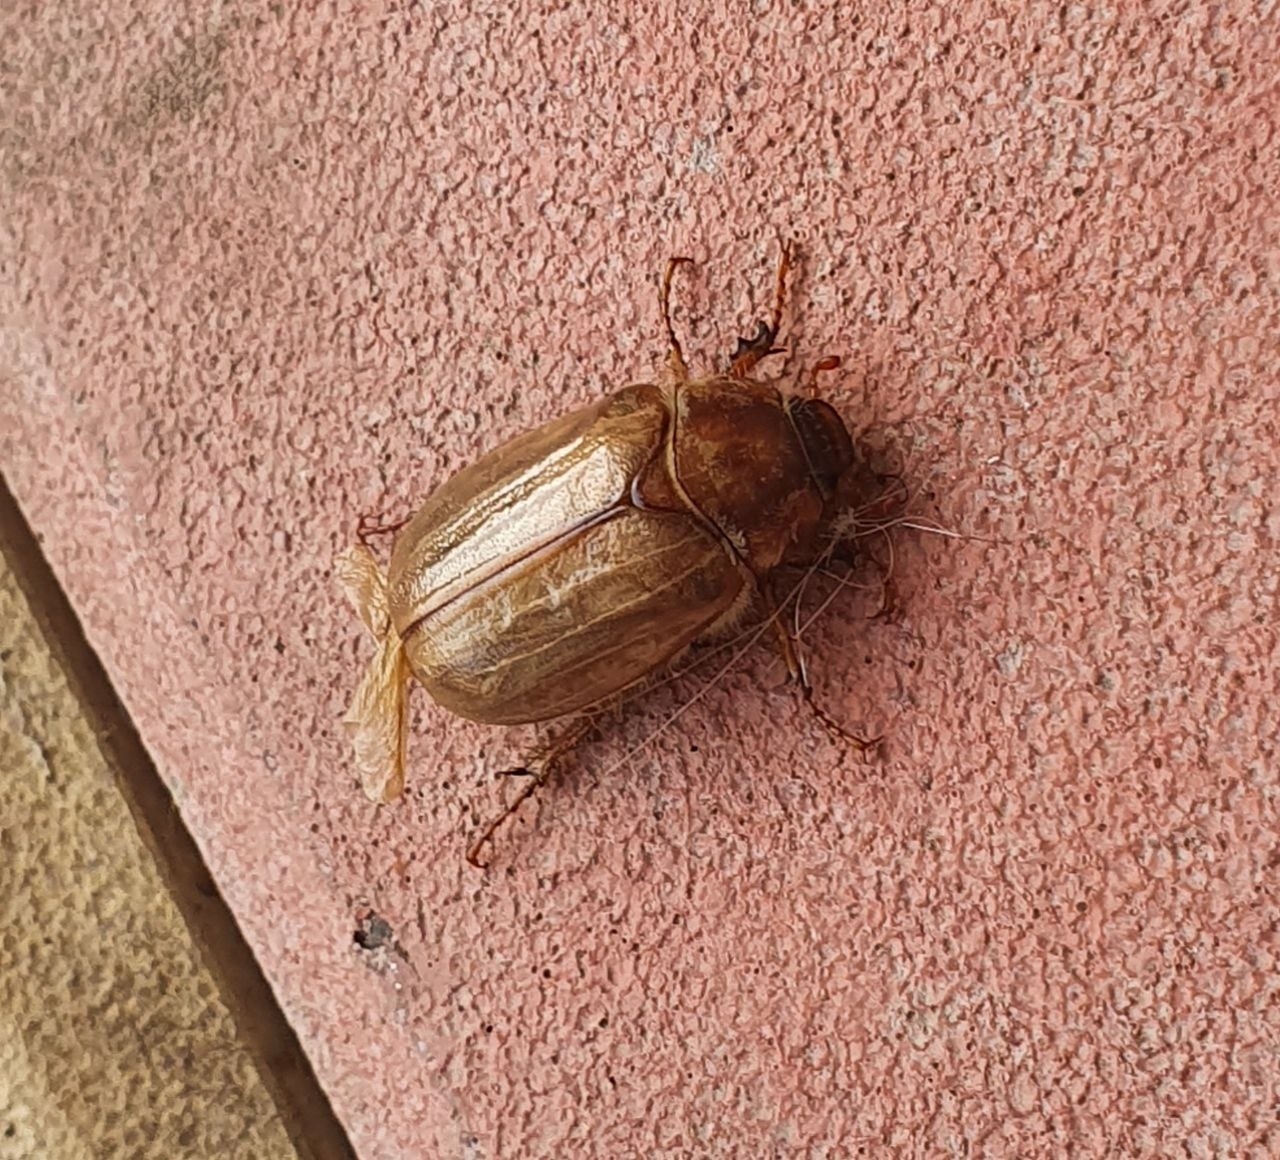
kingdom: Animalia
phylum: Arthropoda
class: Insecta
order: Coleoptera
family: Scarabaeidae
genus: Amphimallon
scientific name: Amphimallon solstitiale
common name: Summer chafer
